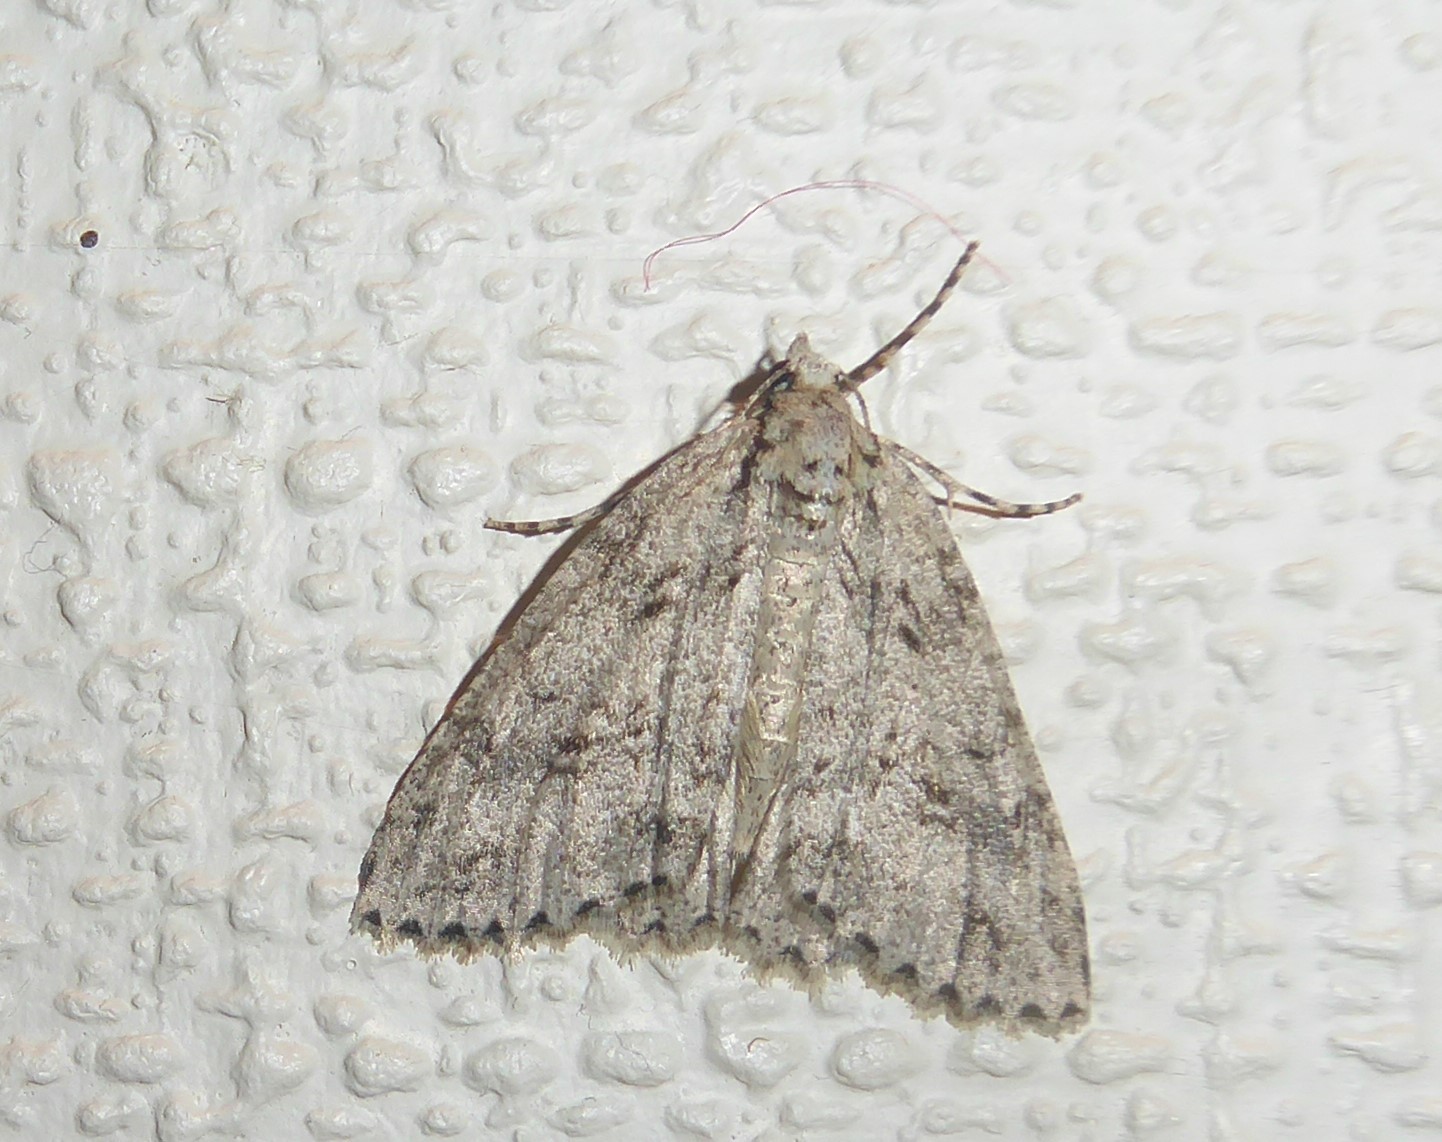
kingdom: Animalia
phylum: Arthropoda
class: Insecta
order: Lepidoptera
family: Geometridae
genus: Pseudocoremia
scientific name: Pseudocoremia rudisata
